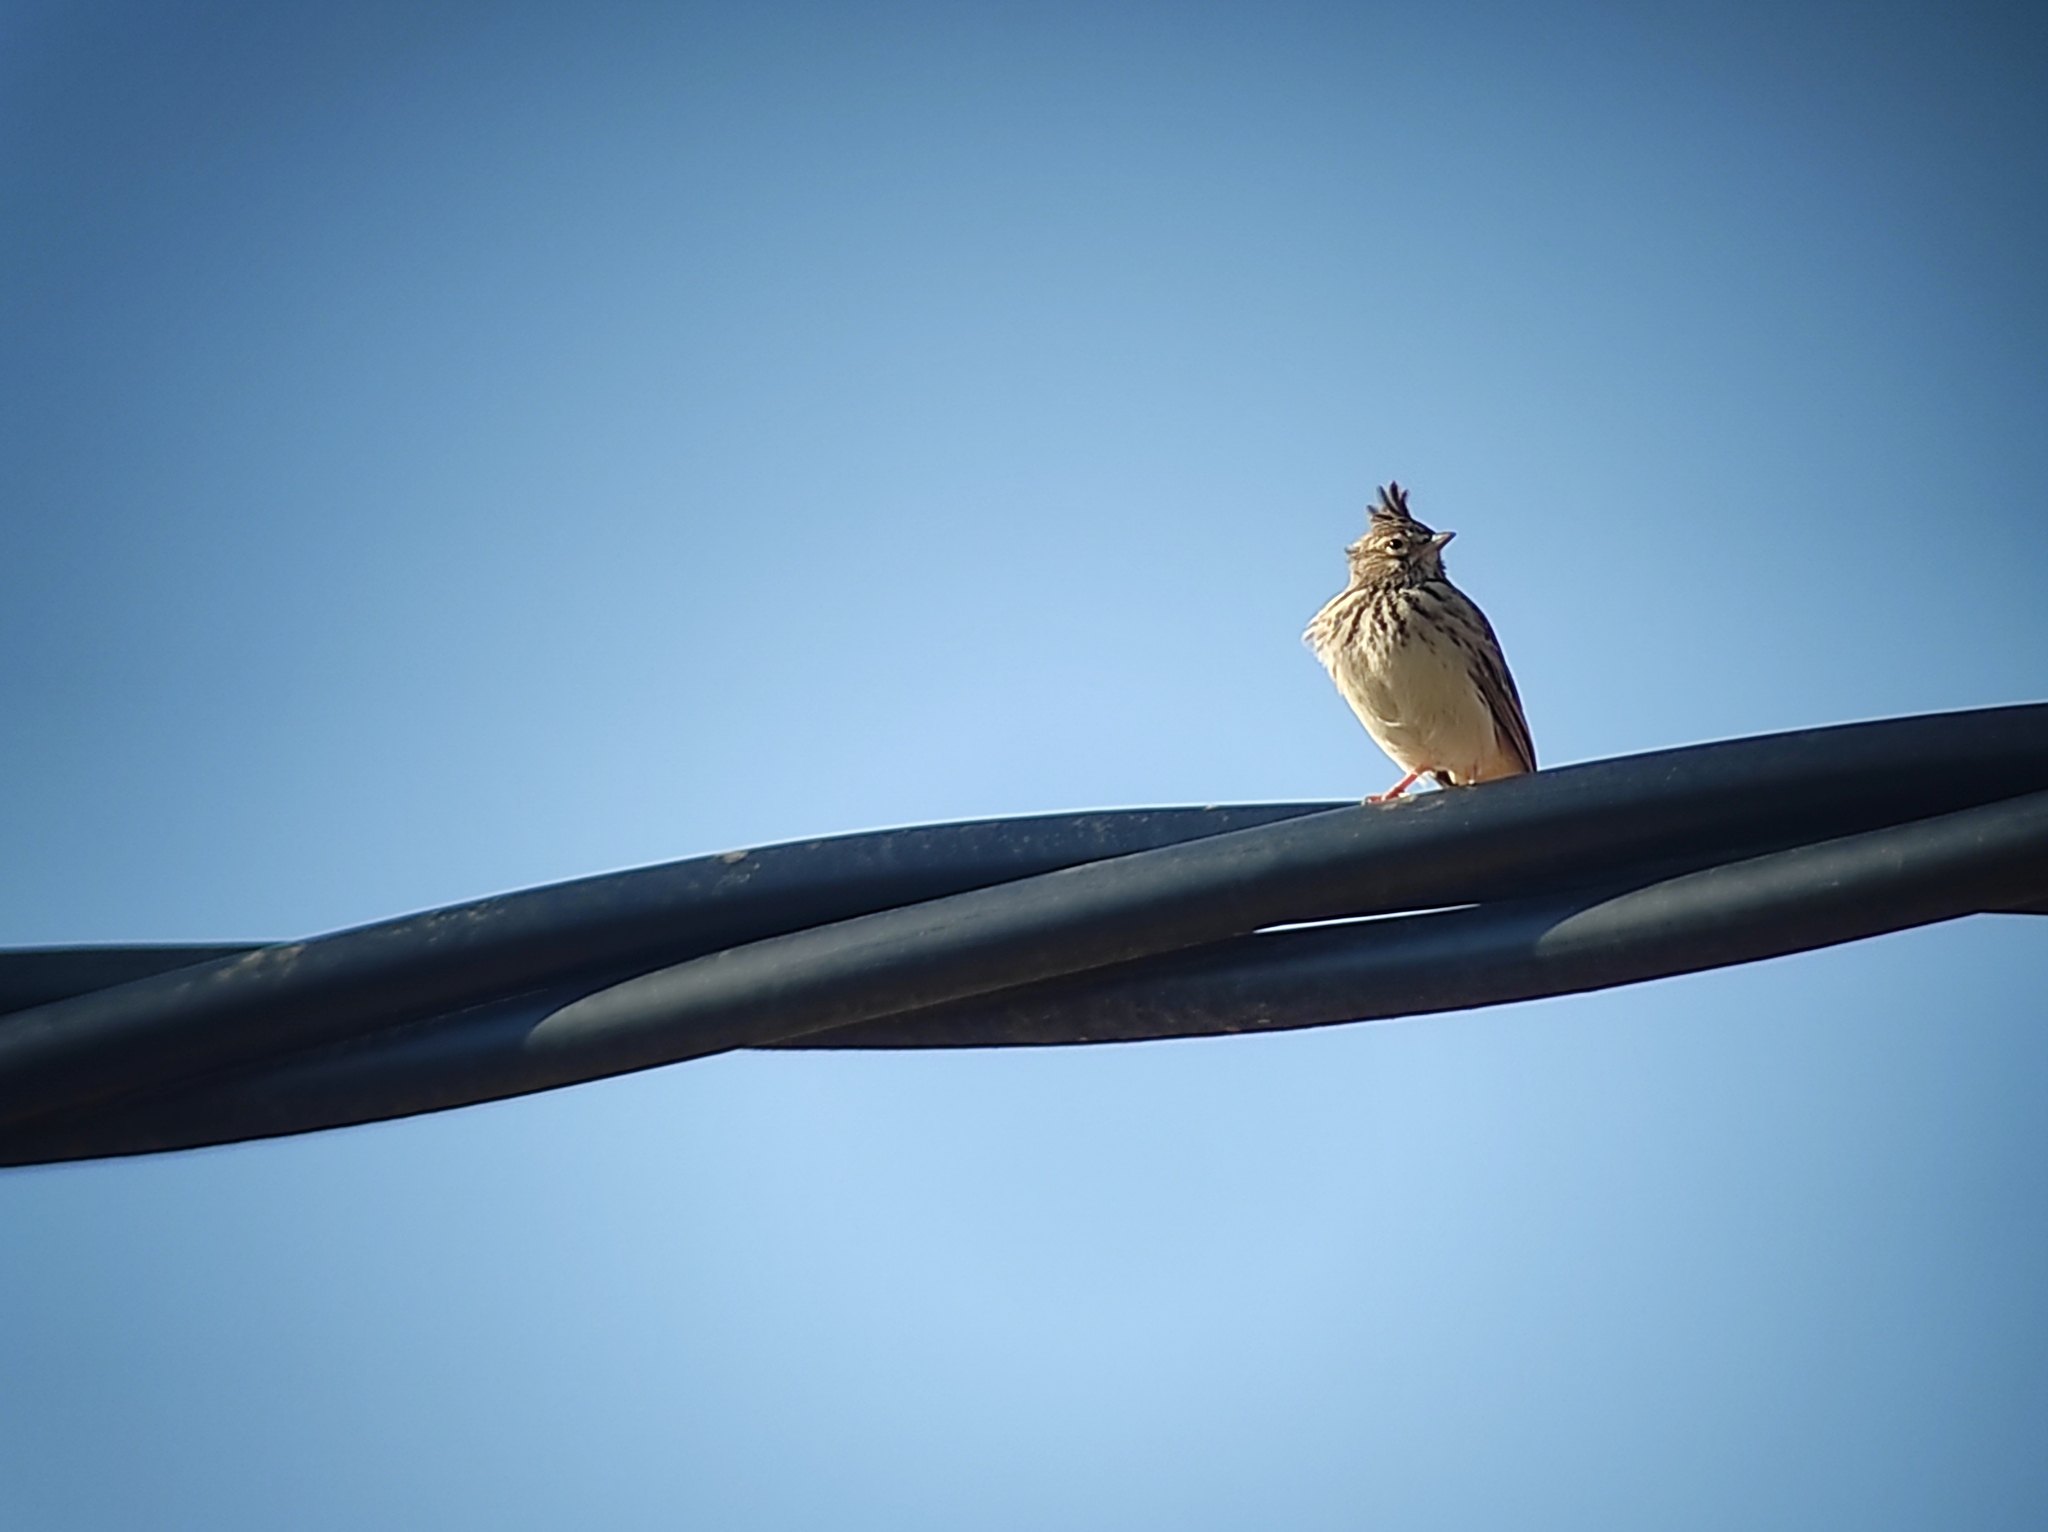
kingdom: Animalia
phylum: Chordata
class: Aves
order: Passeriformes
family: Alaudidae
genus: Galerida
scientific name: Galerida theklae
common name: Thekla lark
